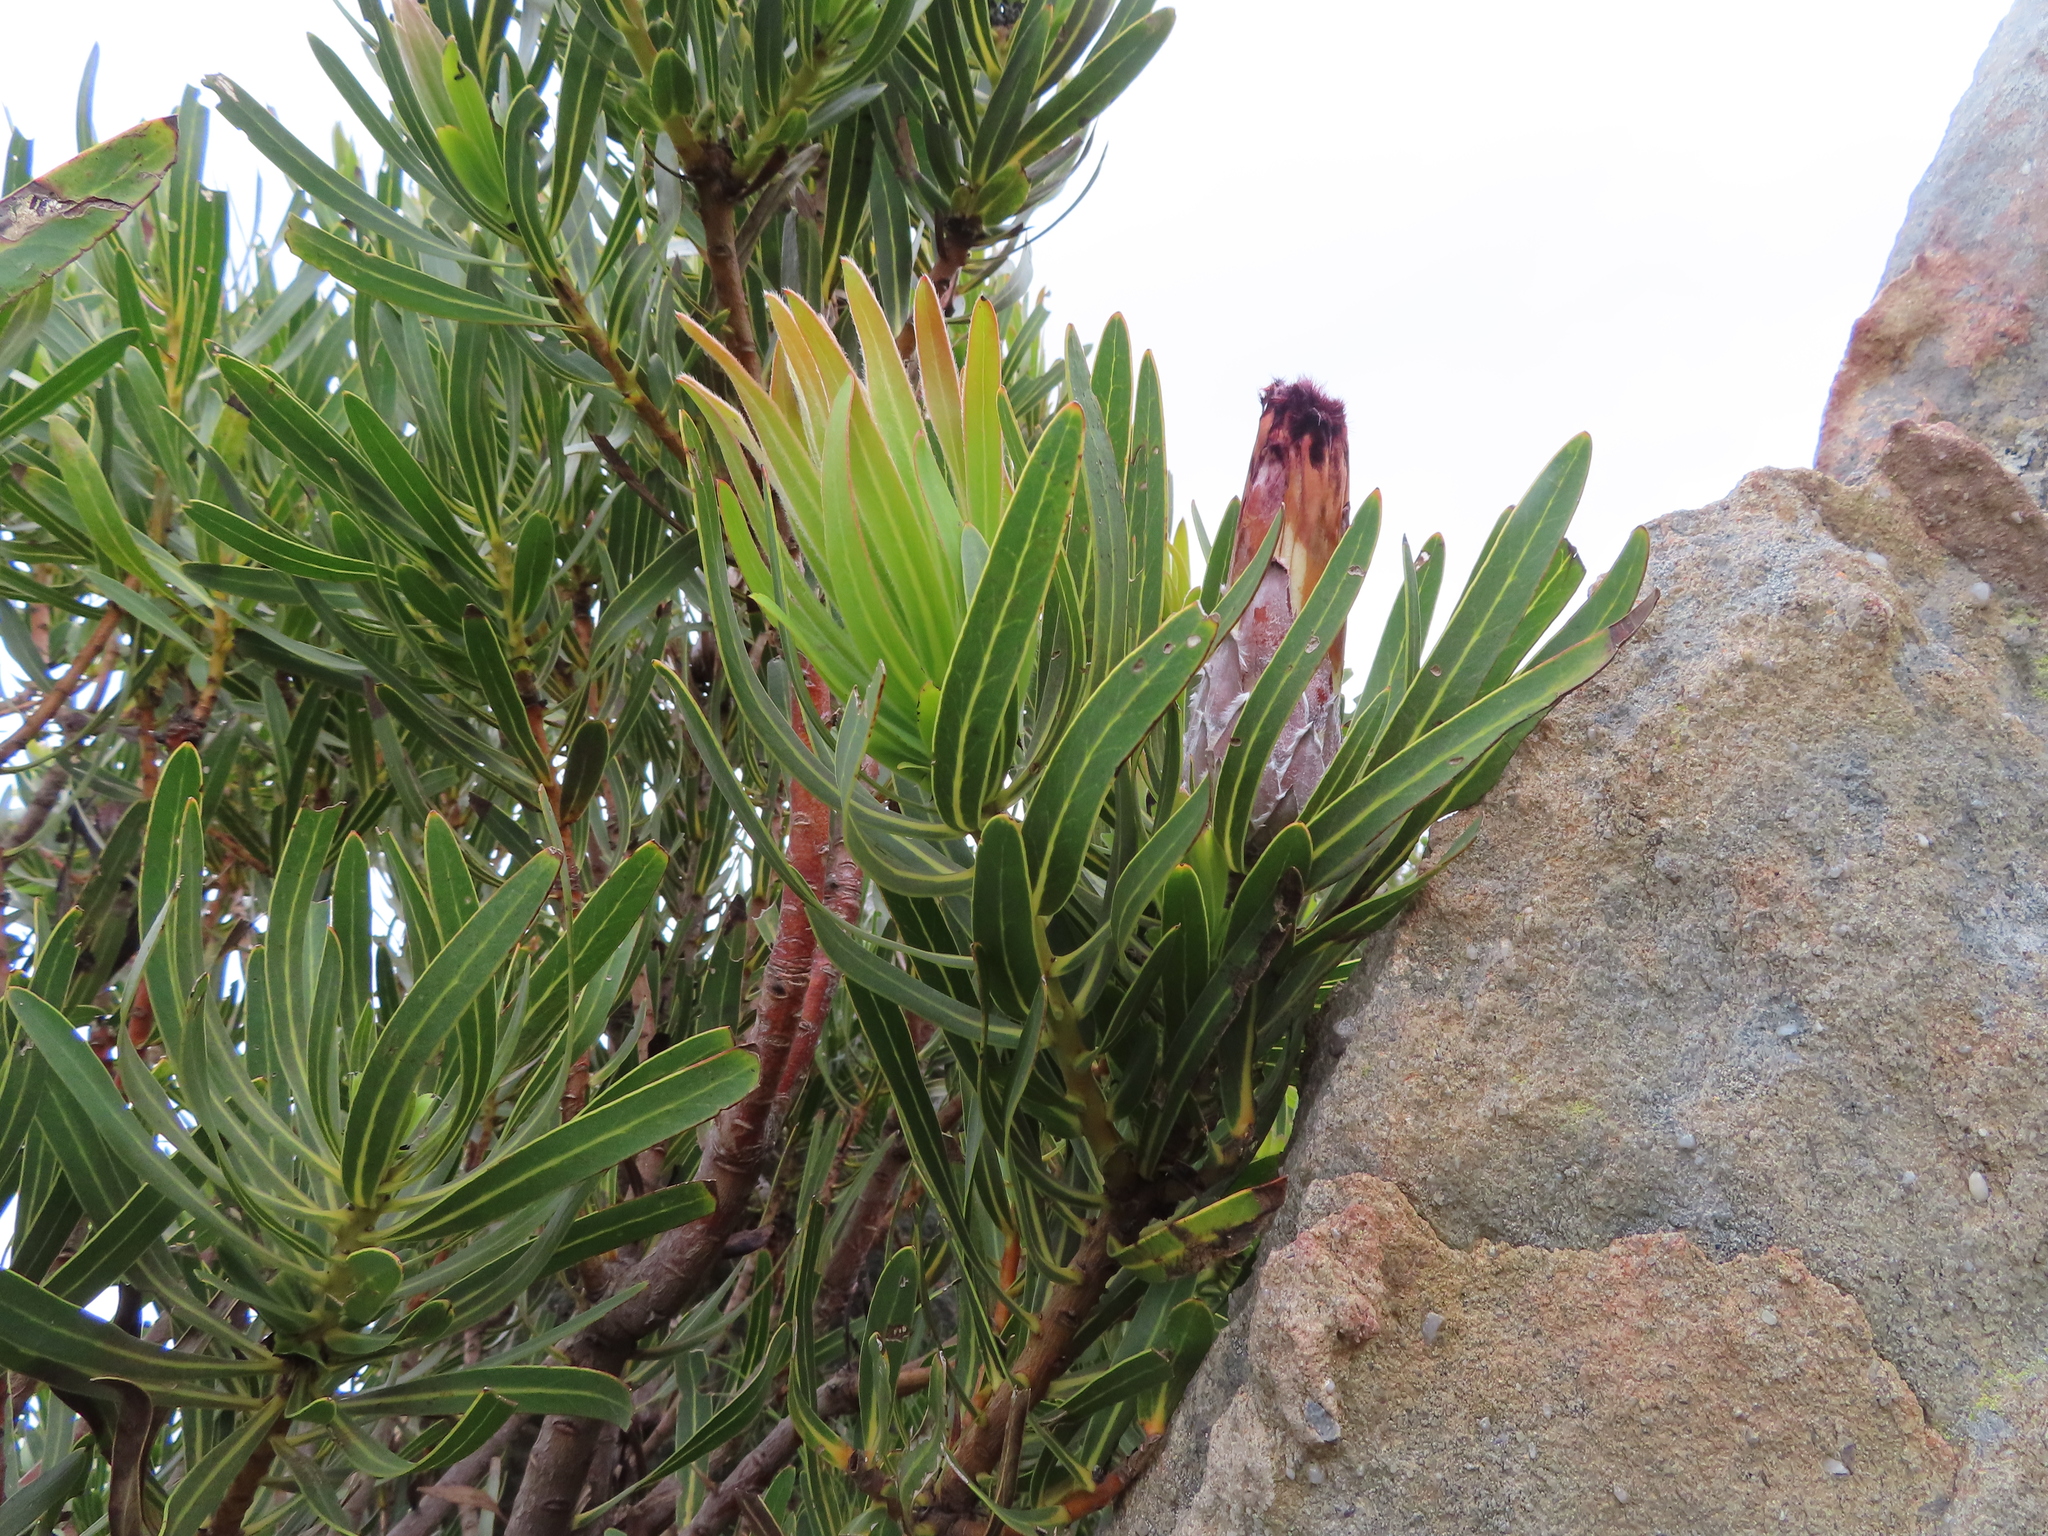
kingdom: Plantae
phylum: Tracheophyta
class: Magnoliopsida
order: Proteales
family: Proteaceae
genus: Protea
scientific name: Protea lepidocarpodendron
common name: Black-bearded protea
